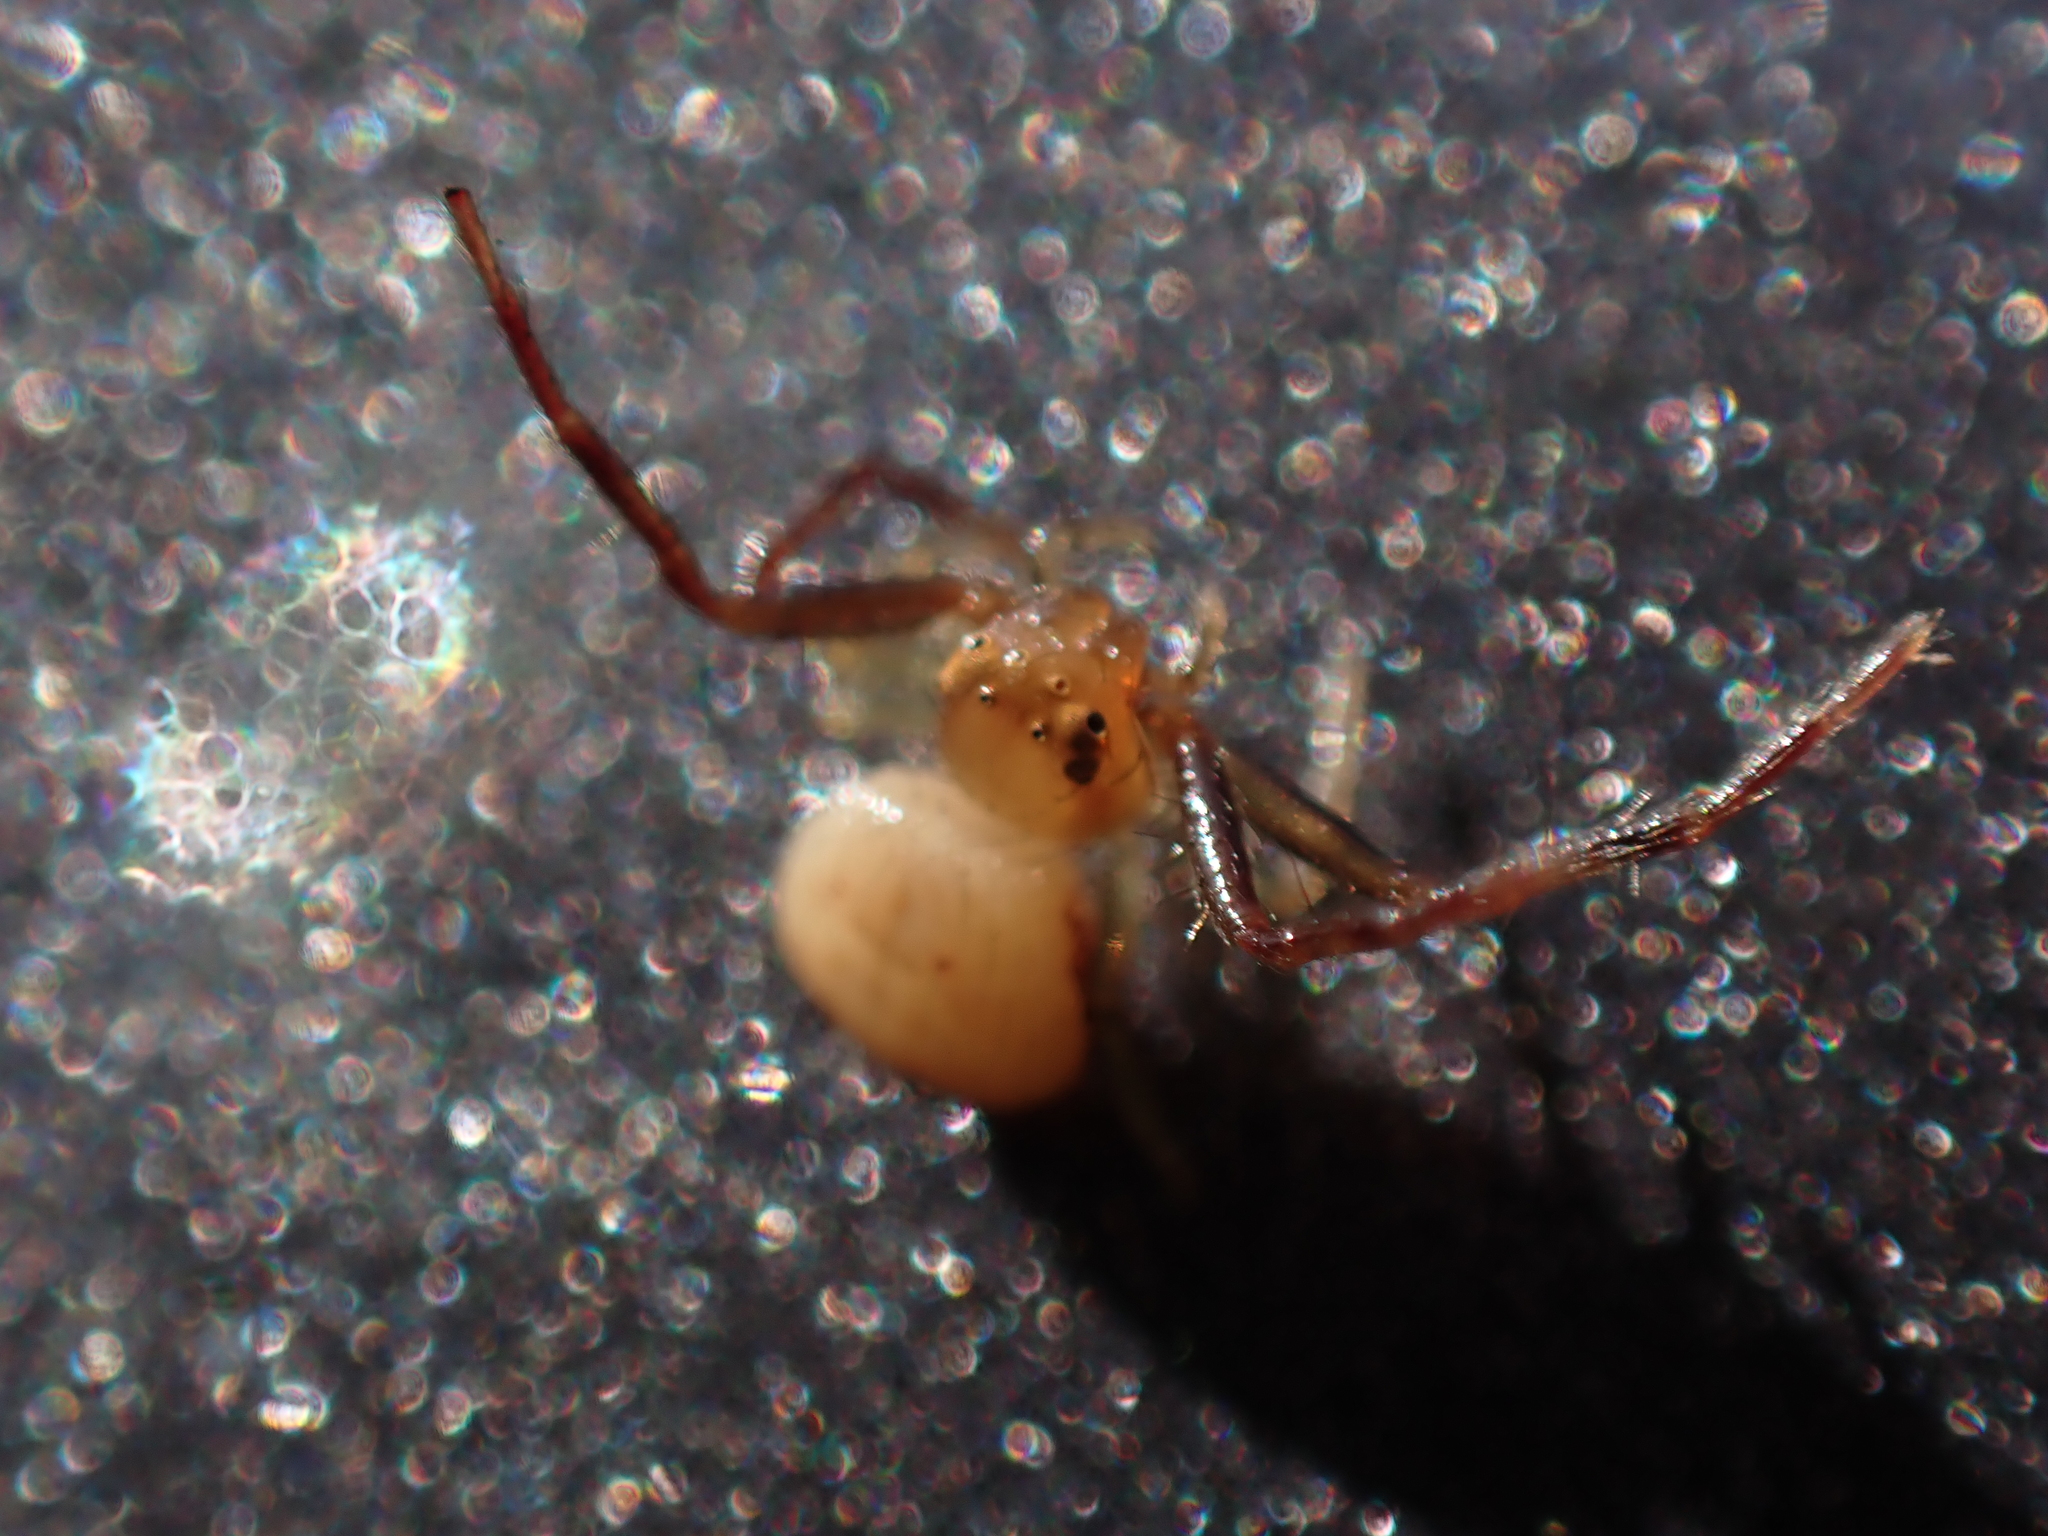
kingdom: Animalia
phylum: Arthropoda
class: Arachnida
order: Araneae
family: Thomisidae
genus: Synema
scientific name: Synema parvulum
